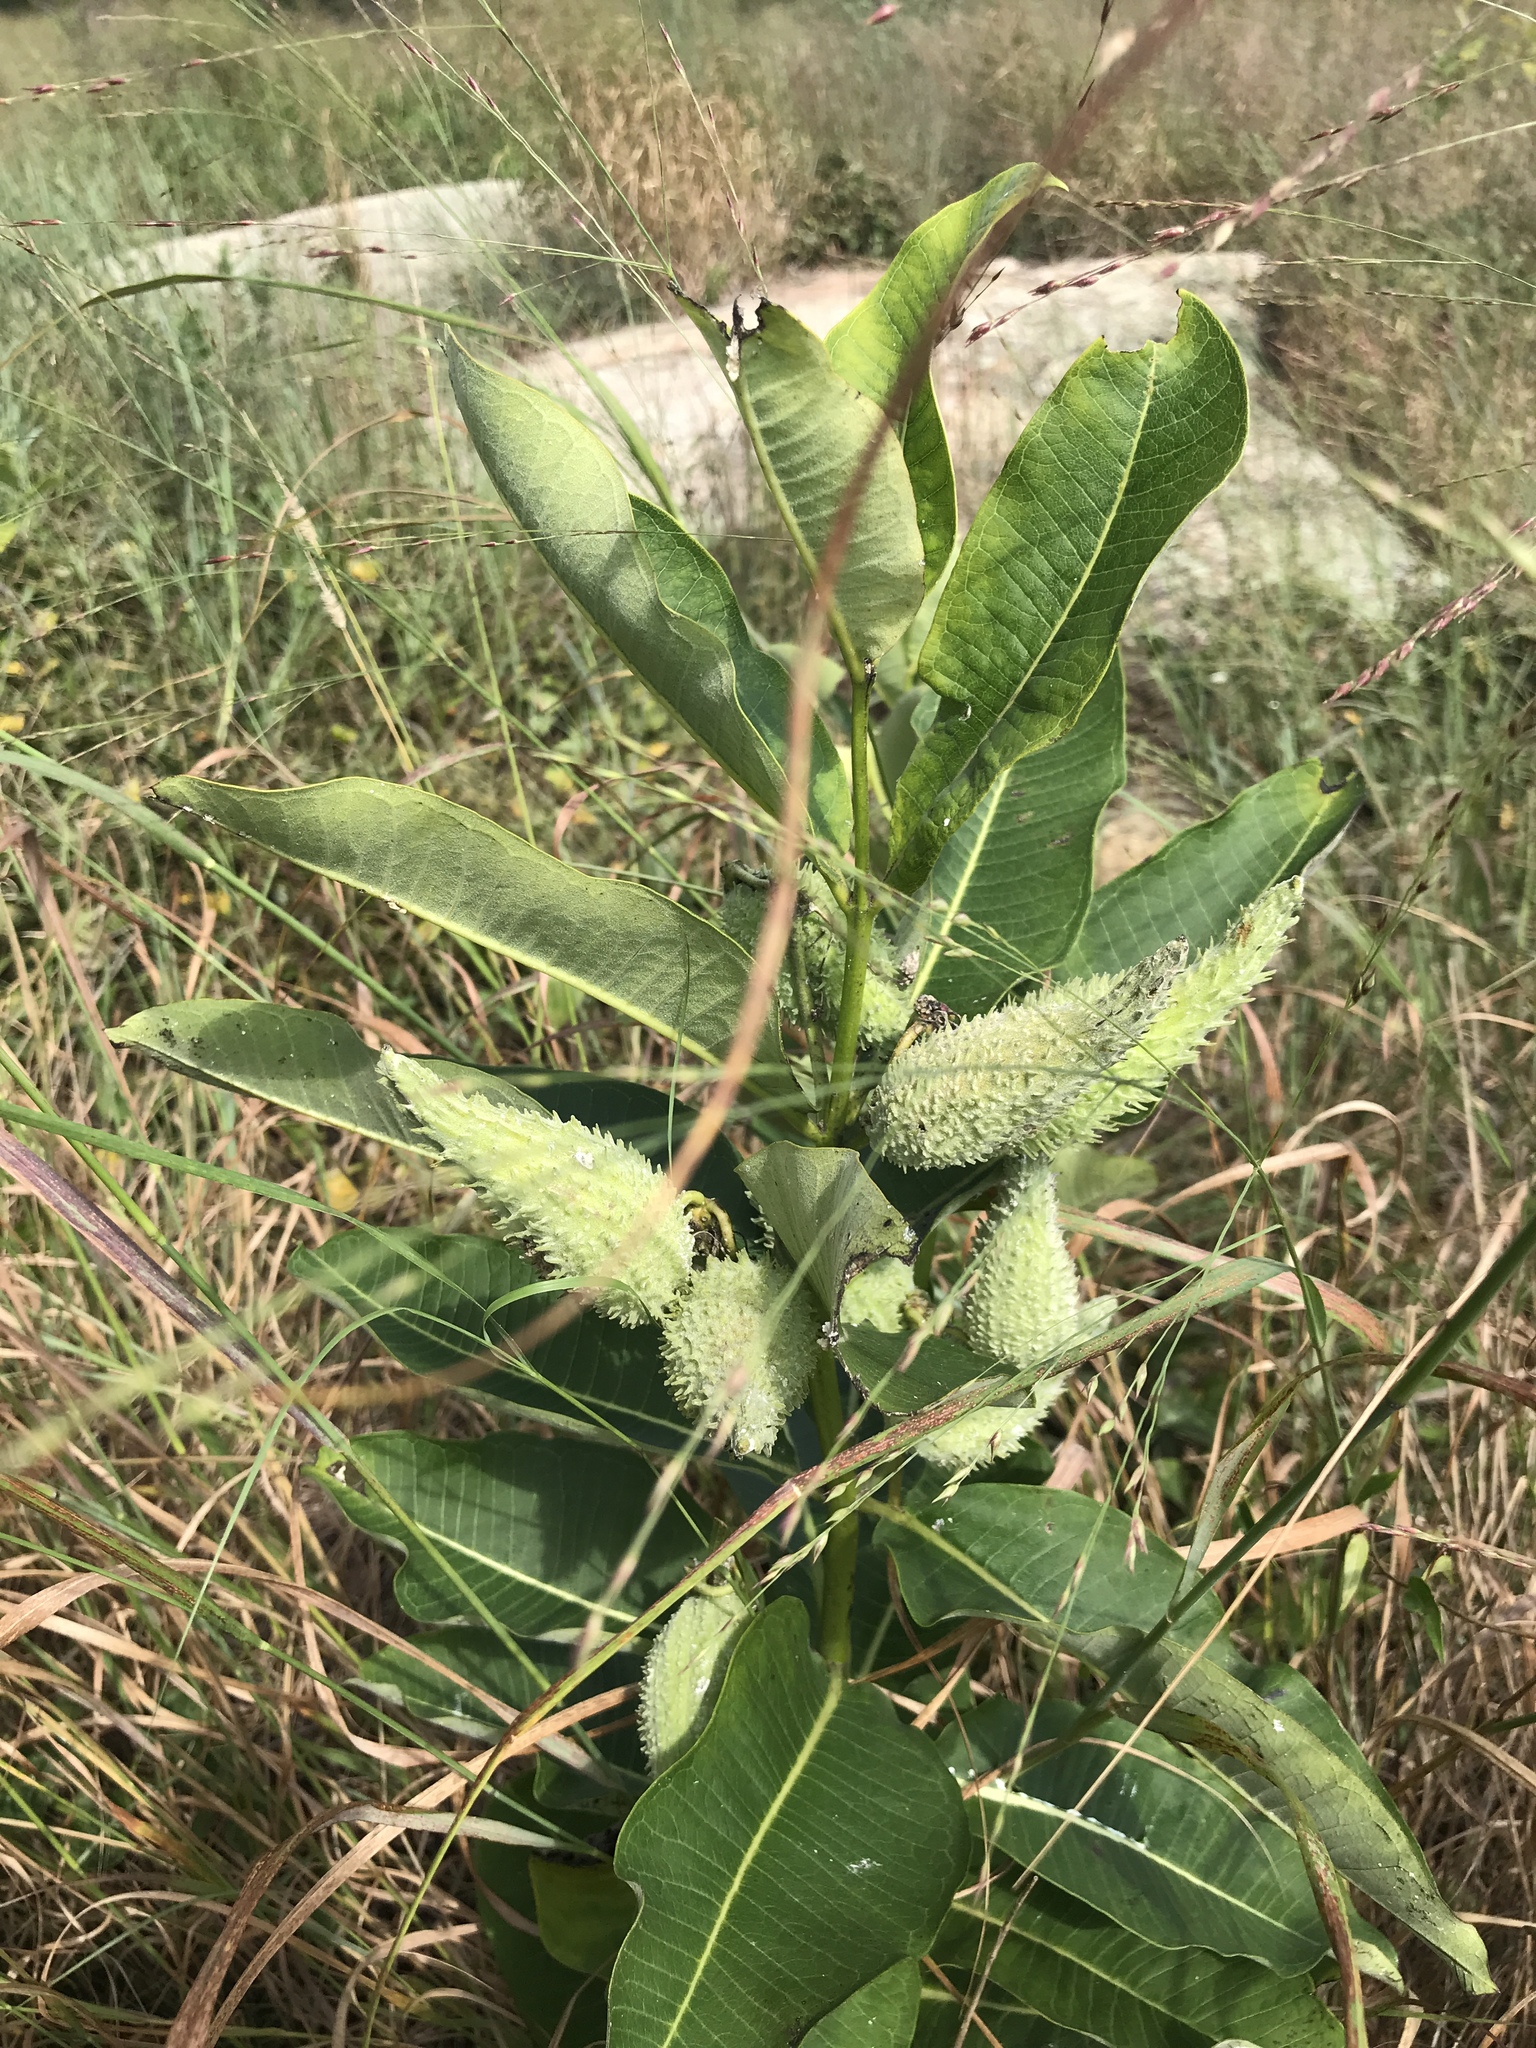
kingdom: Plantae
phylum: Tracheophyta
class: Magnoliopsida
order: Gentianales
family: Apocynaceae
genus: Asclepias
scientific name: Asclepias syriaca
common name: Common milkweed
